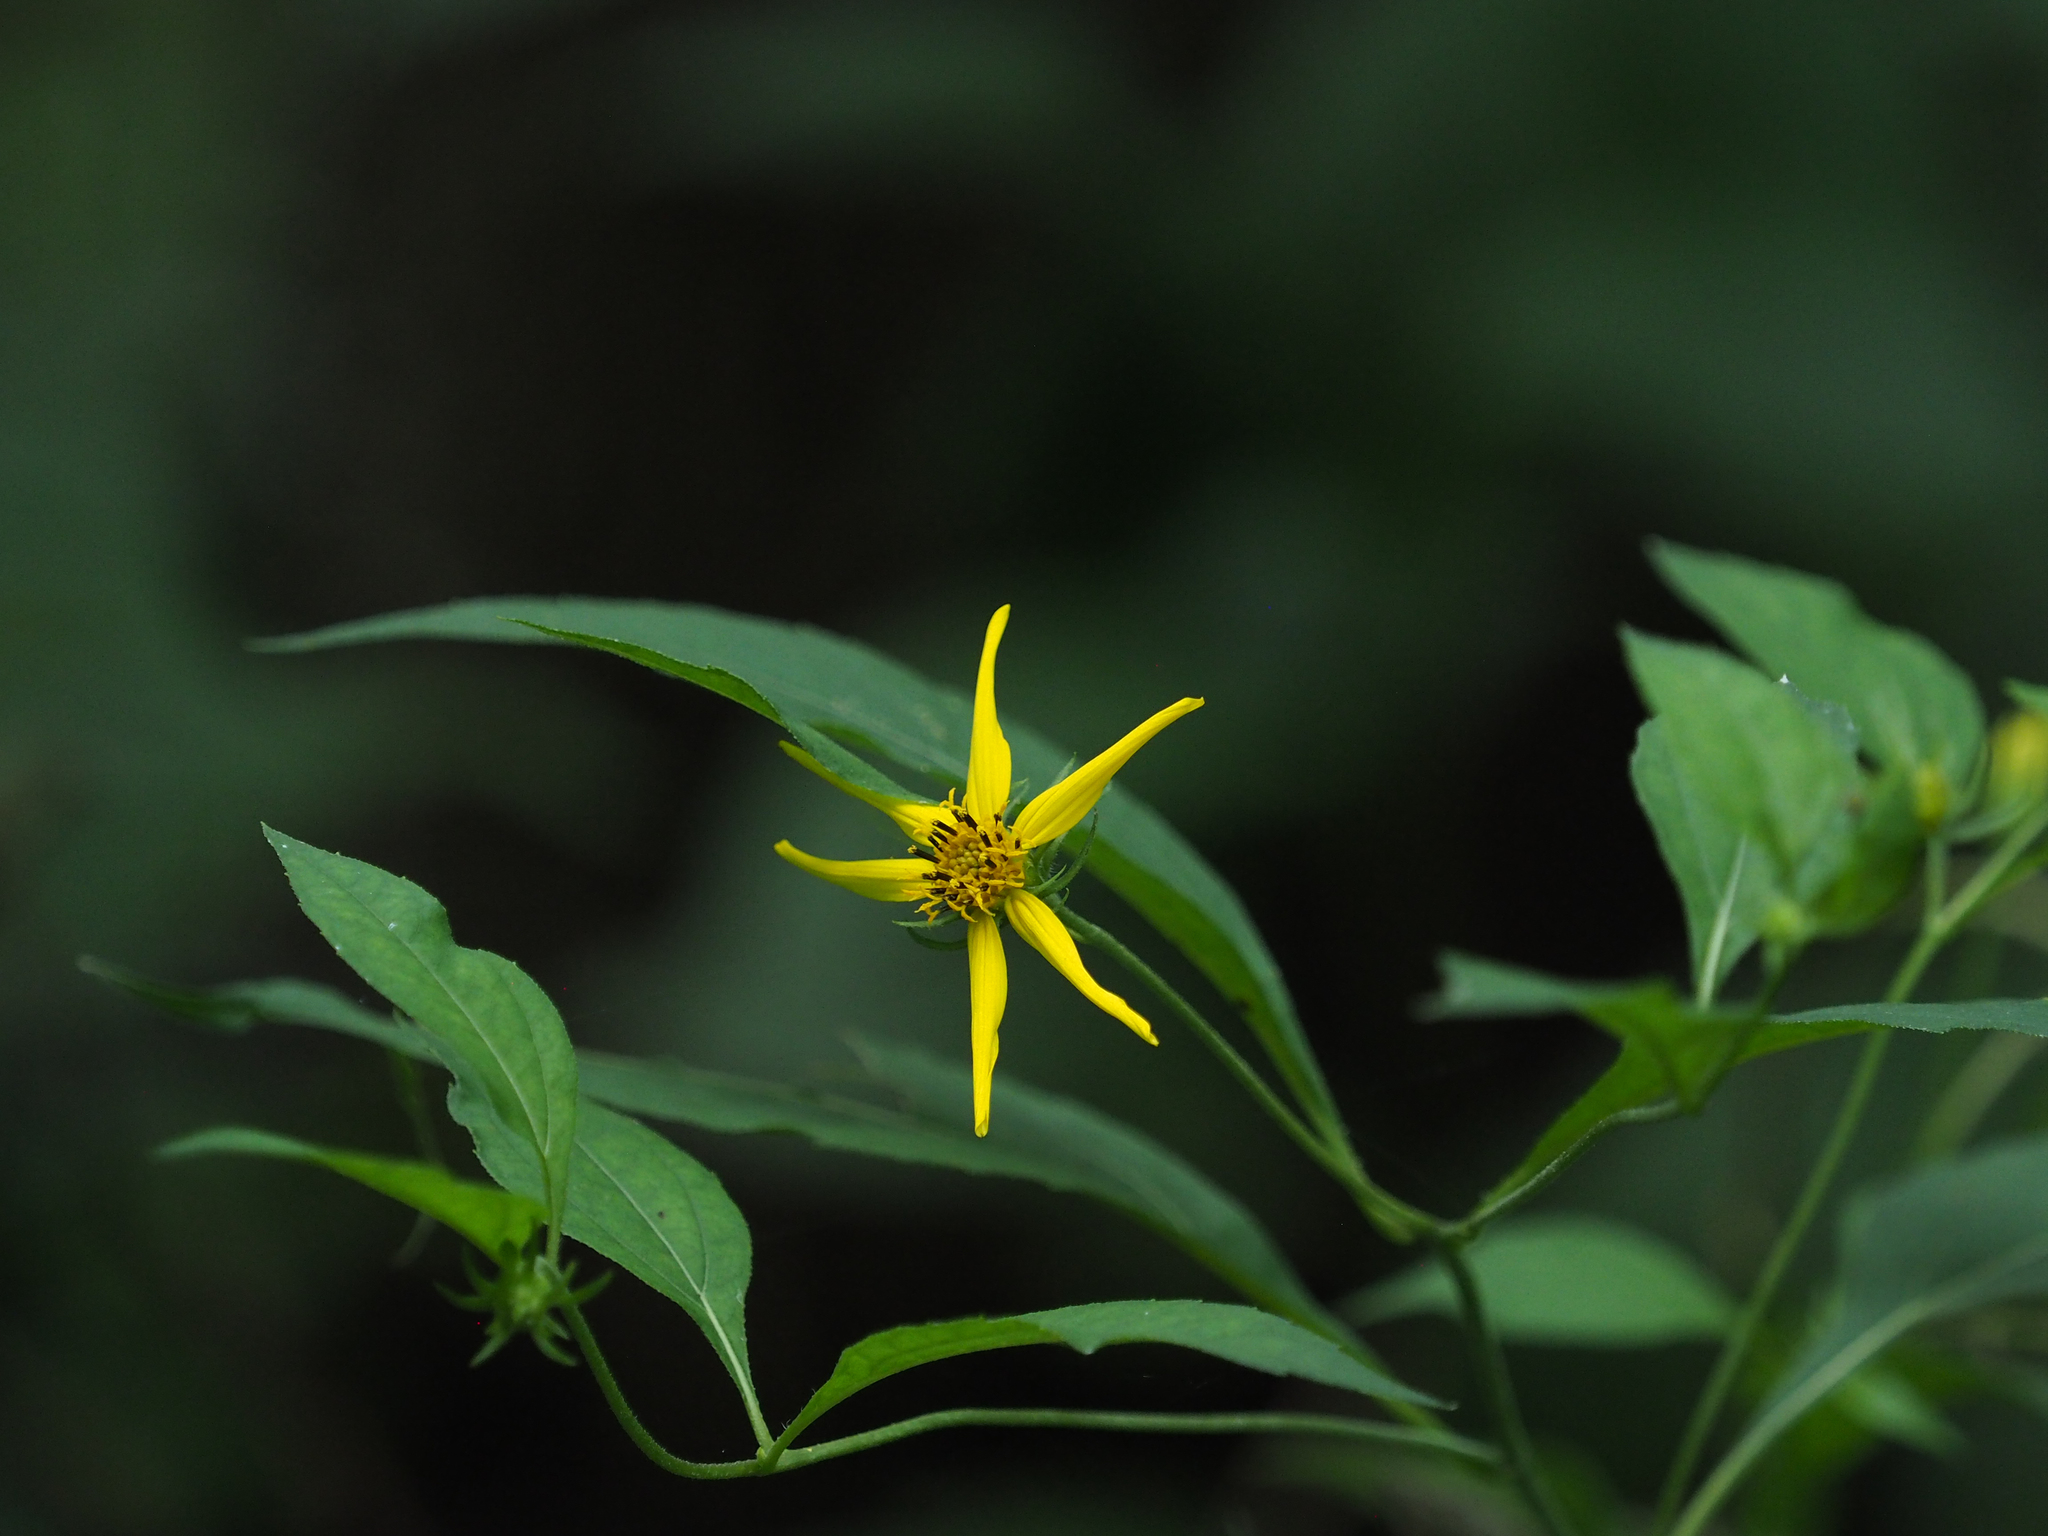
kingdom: Plantae
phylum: Tracheophyta
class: Magnoliopsida
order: Asterales
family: Asteraceae
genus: Heliopsis
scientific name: Heliopsis helianthoides
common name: False sunflower
